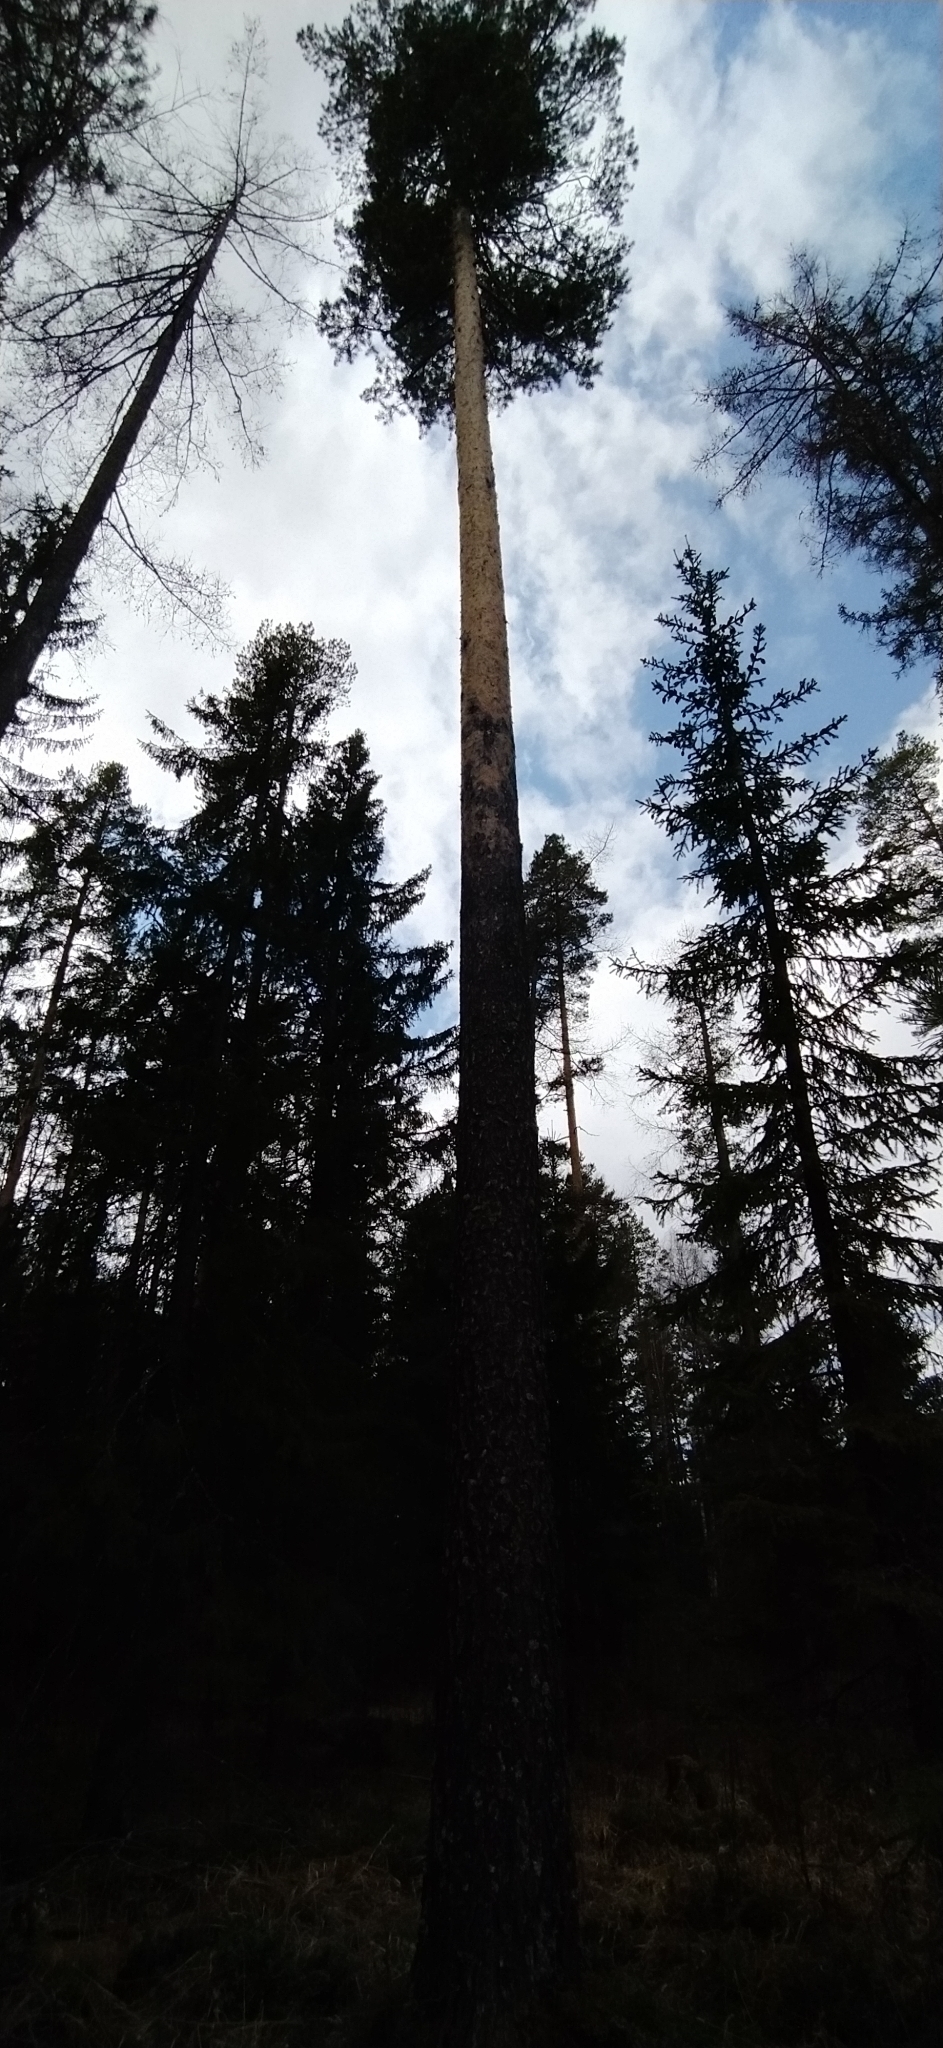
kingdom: Plantae
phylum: Tracheophyta
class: Pinopsida
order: Pinales
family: Pinaceae
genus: Pinus
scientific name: Pinus sylvestris
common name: Scots pine
